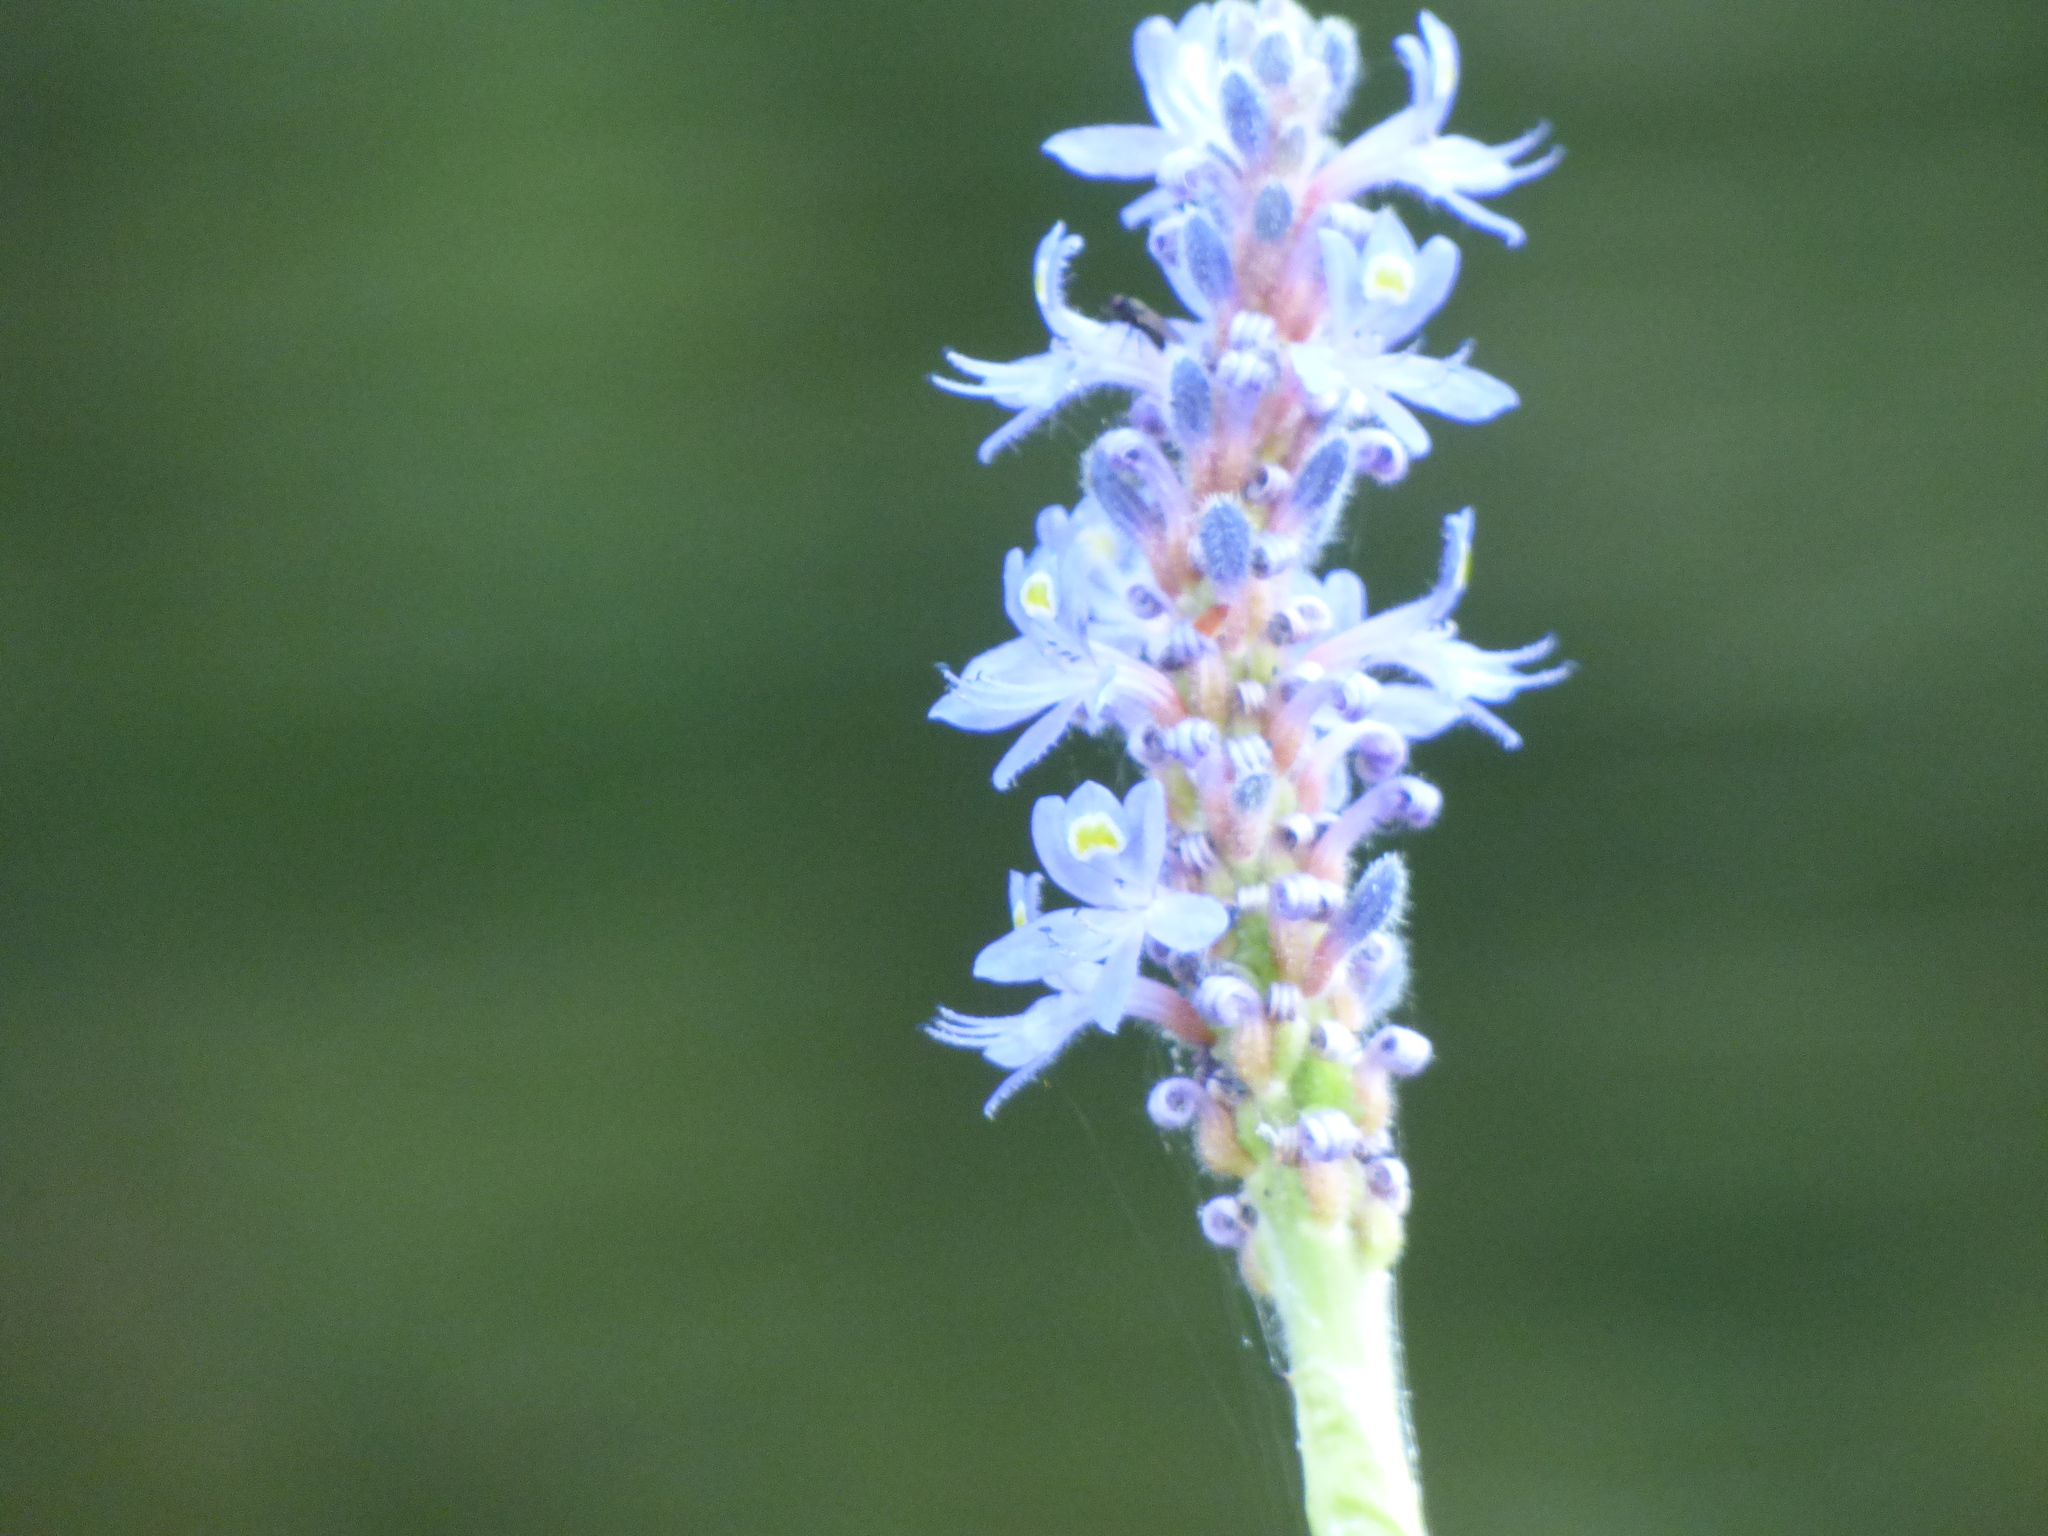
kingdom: Plantae
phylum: Tracheophyta
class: Liliopsida
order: Commelinales
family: Pontederiaceae
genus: Pontederia
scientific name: Pontederia cordata
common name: Pickerelweed
